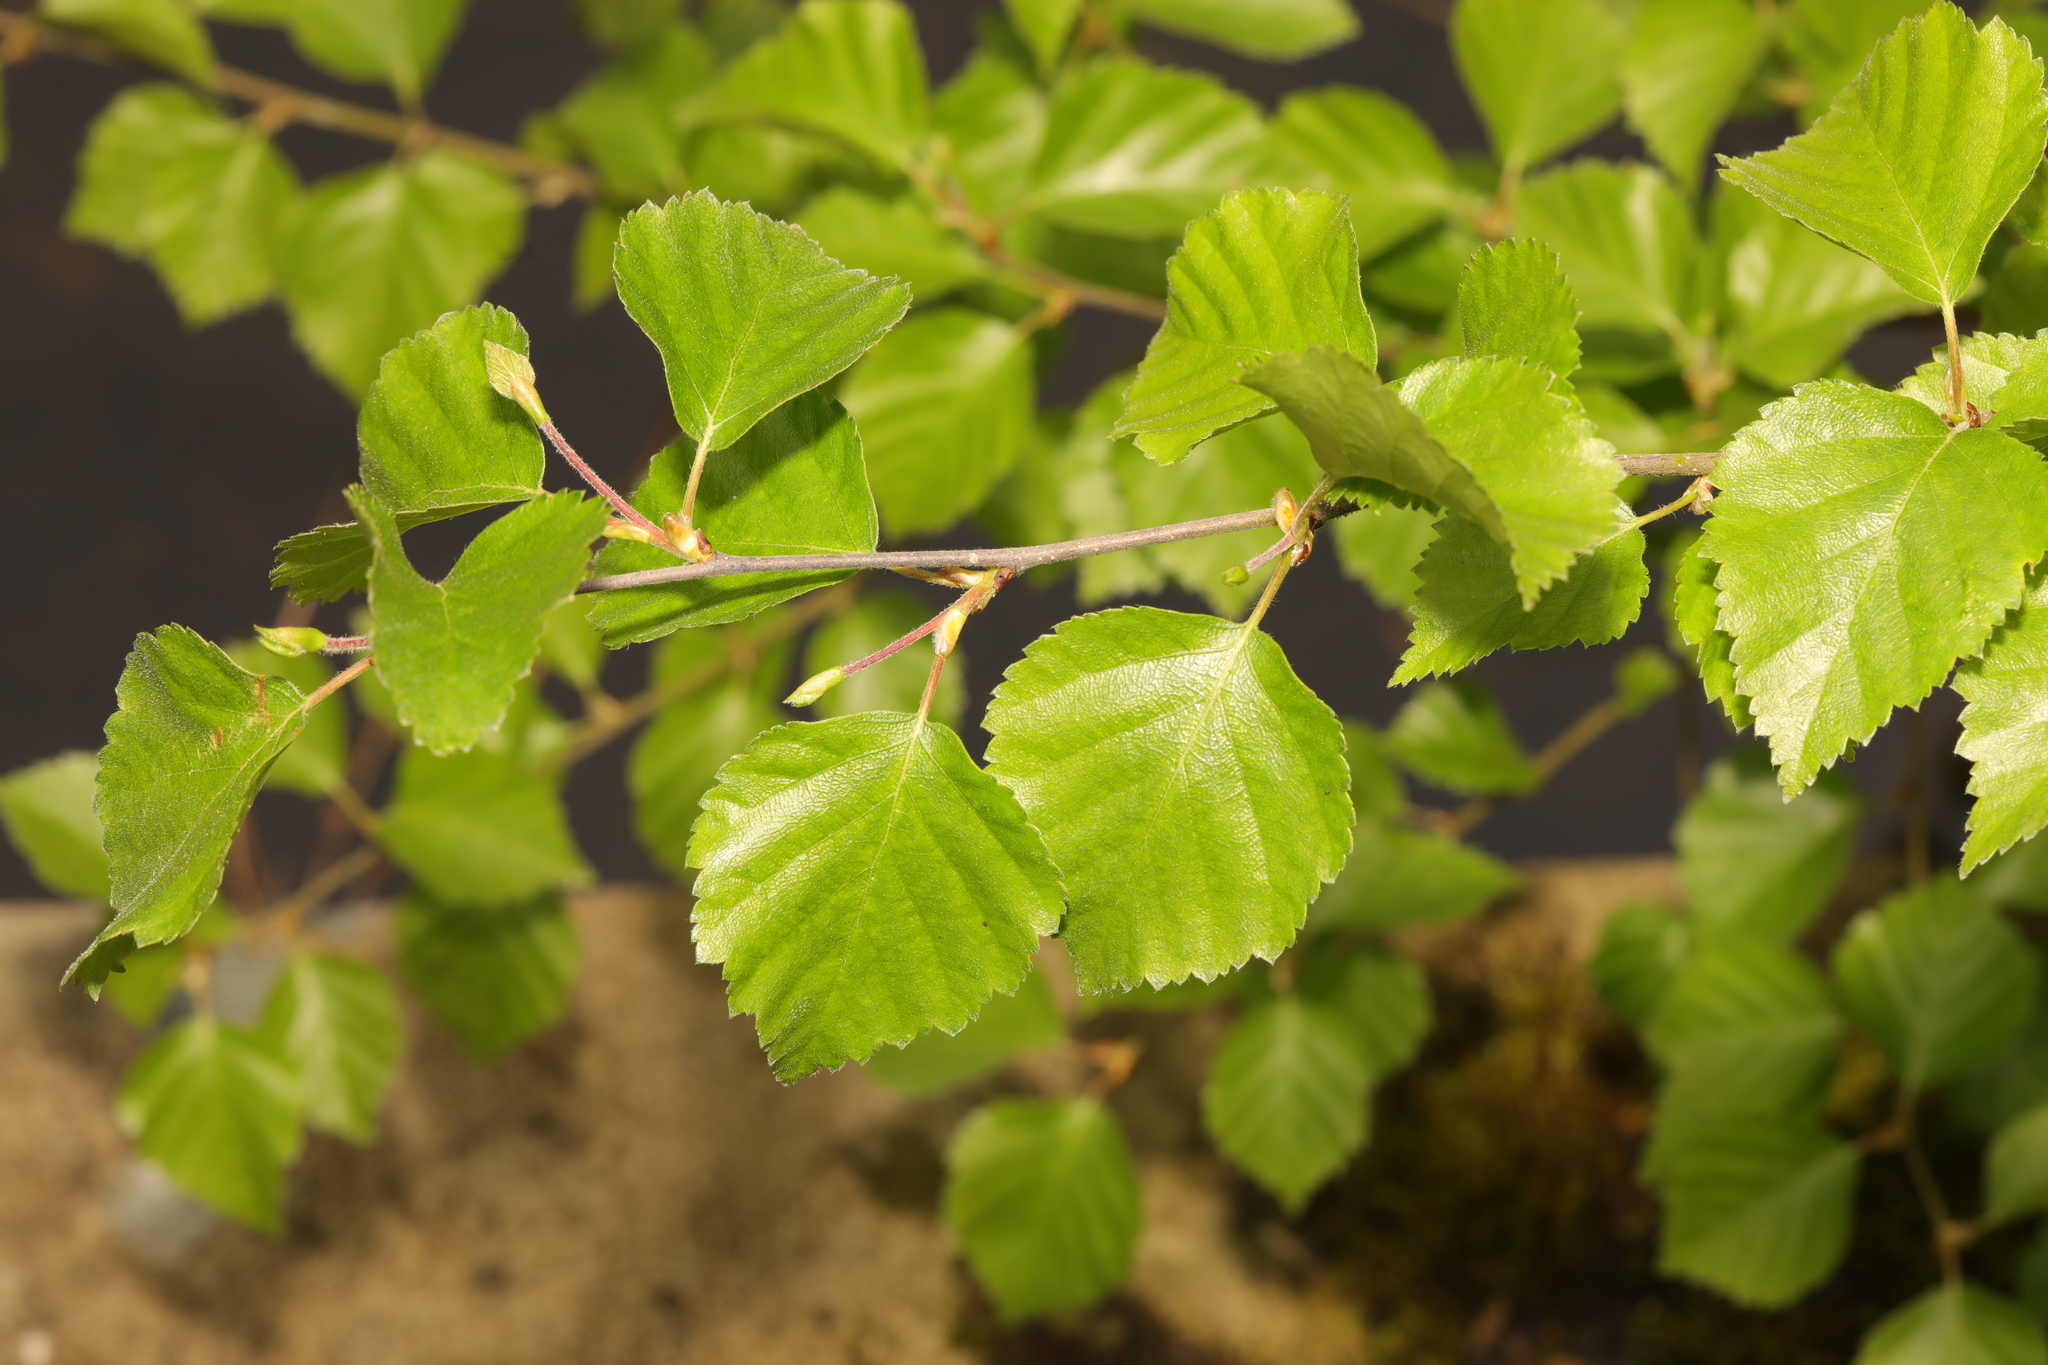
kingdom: Plantae
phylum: Tracheophyta
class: Magnoliopsida
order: Fagales
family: Betulaceae
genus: Betula
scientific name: Betula pubescens
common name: Downy birch
